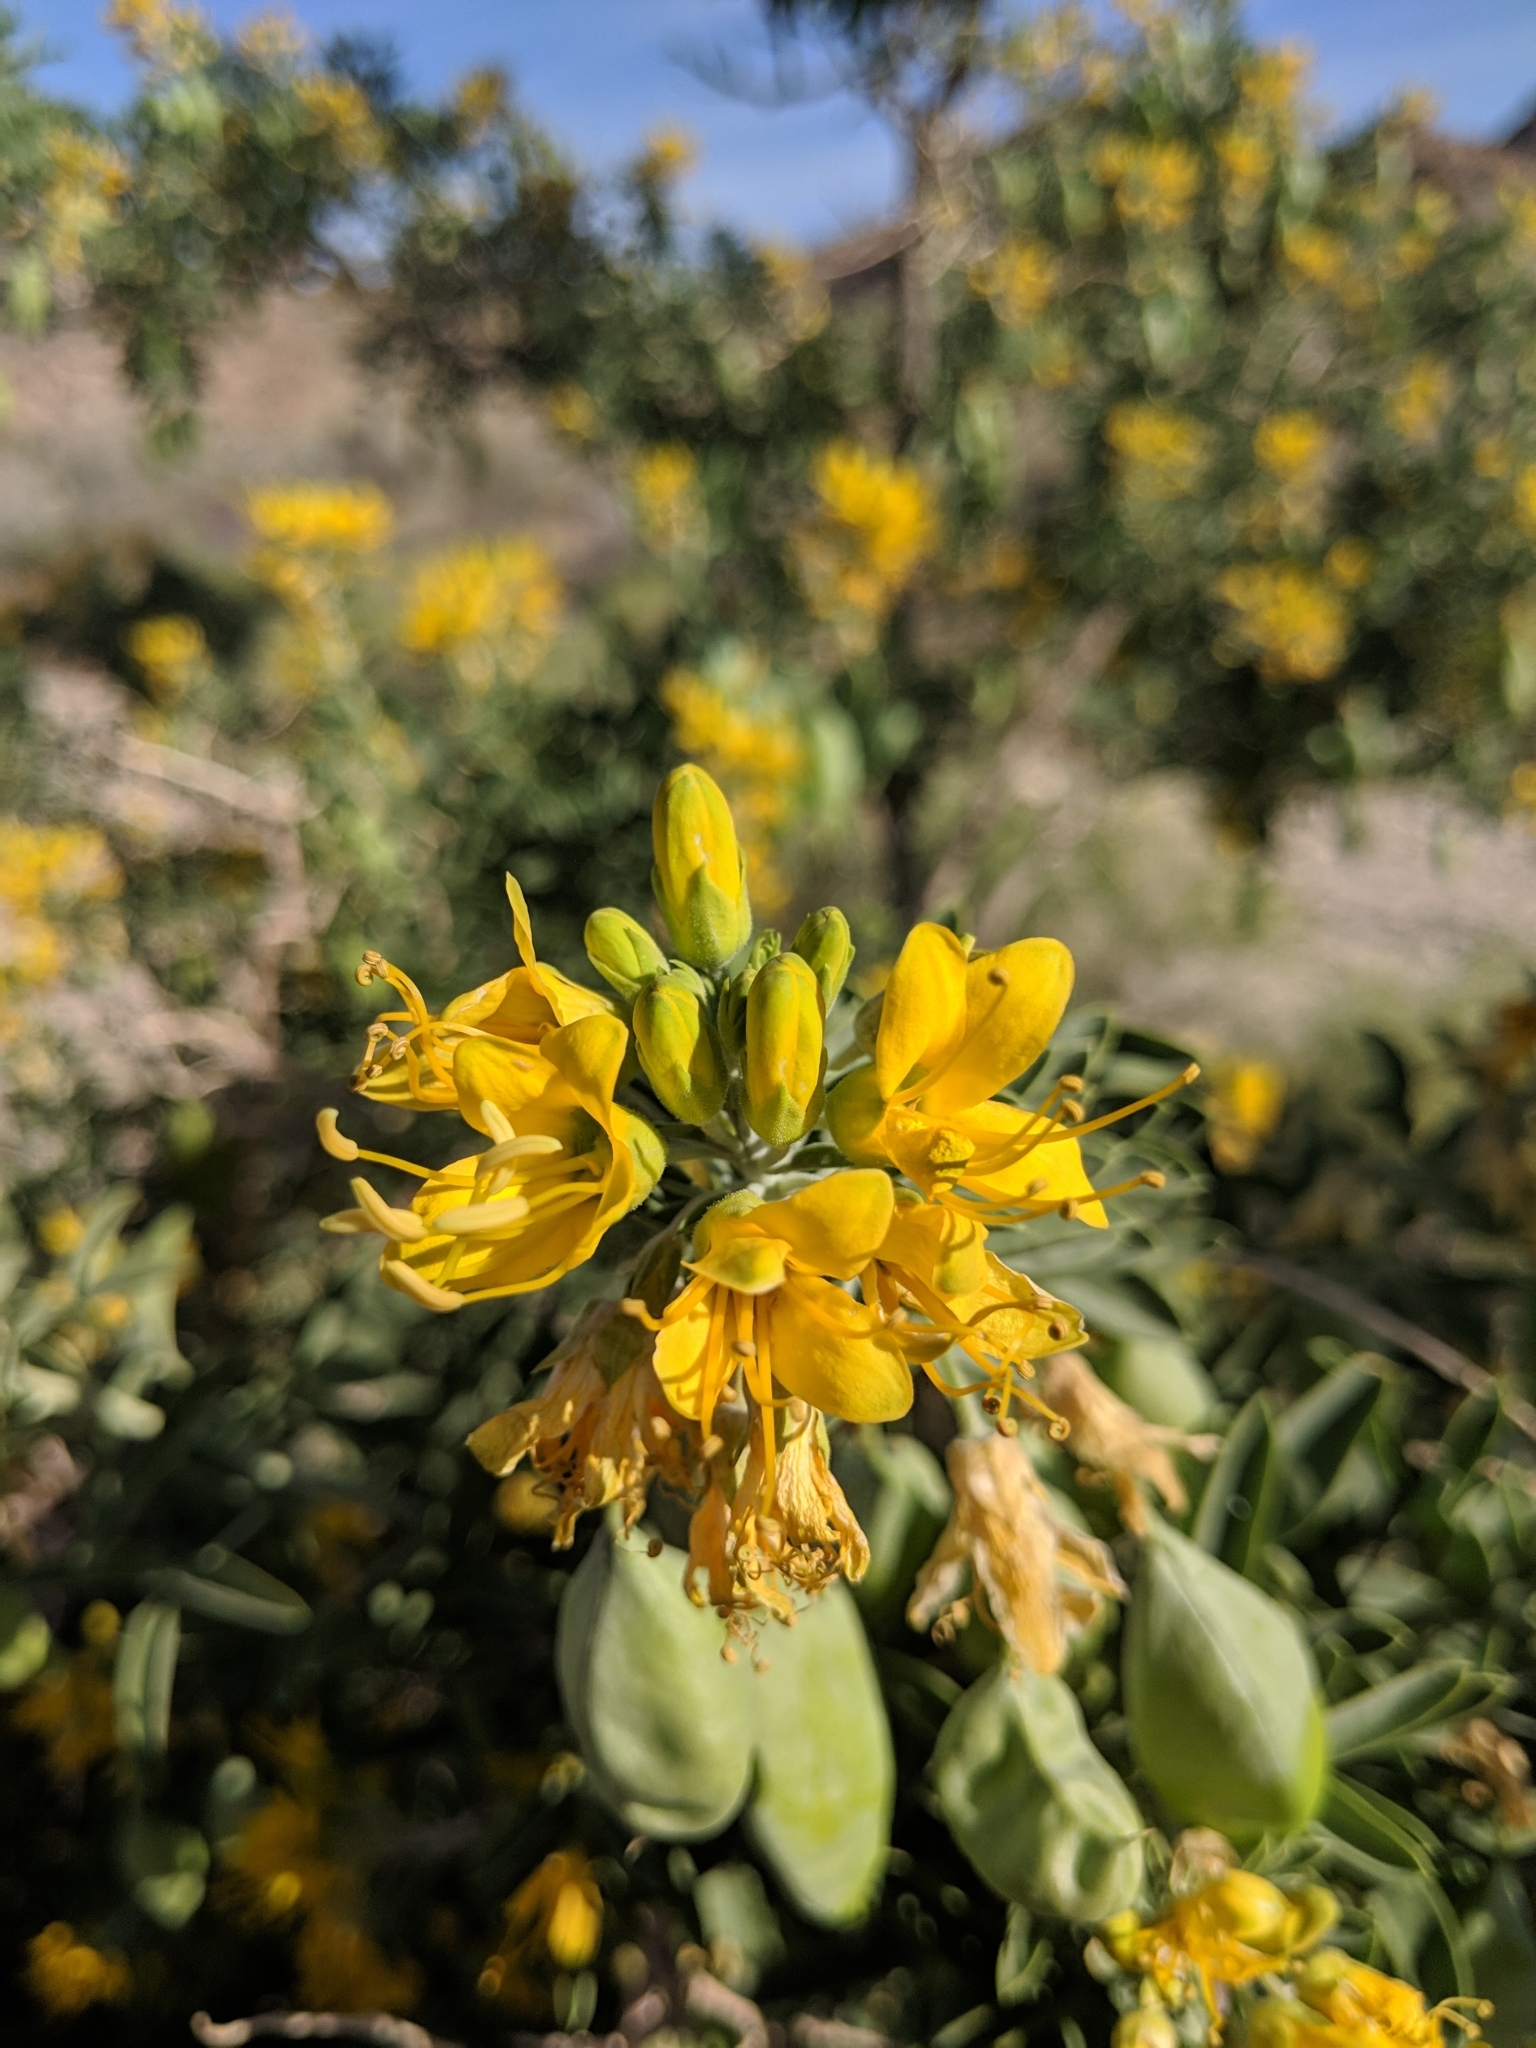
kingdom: Plantae
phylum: Tracheophyta
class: Magnoliopsida
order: Brassicales
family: Cleomaceae
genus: Cleomella
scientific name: Cleomella arborea
